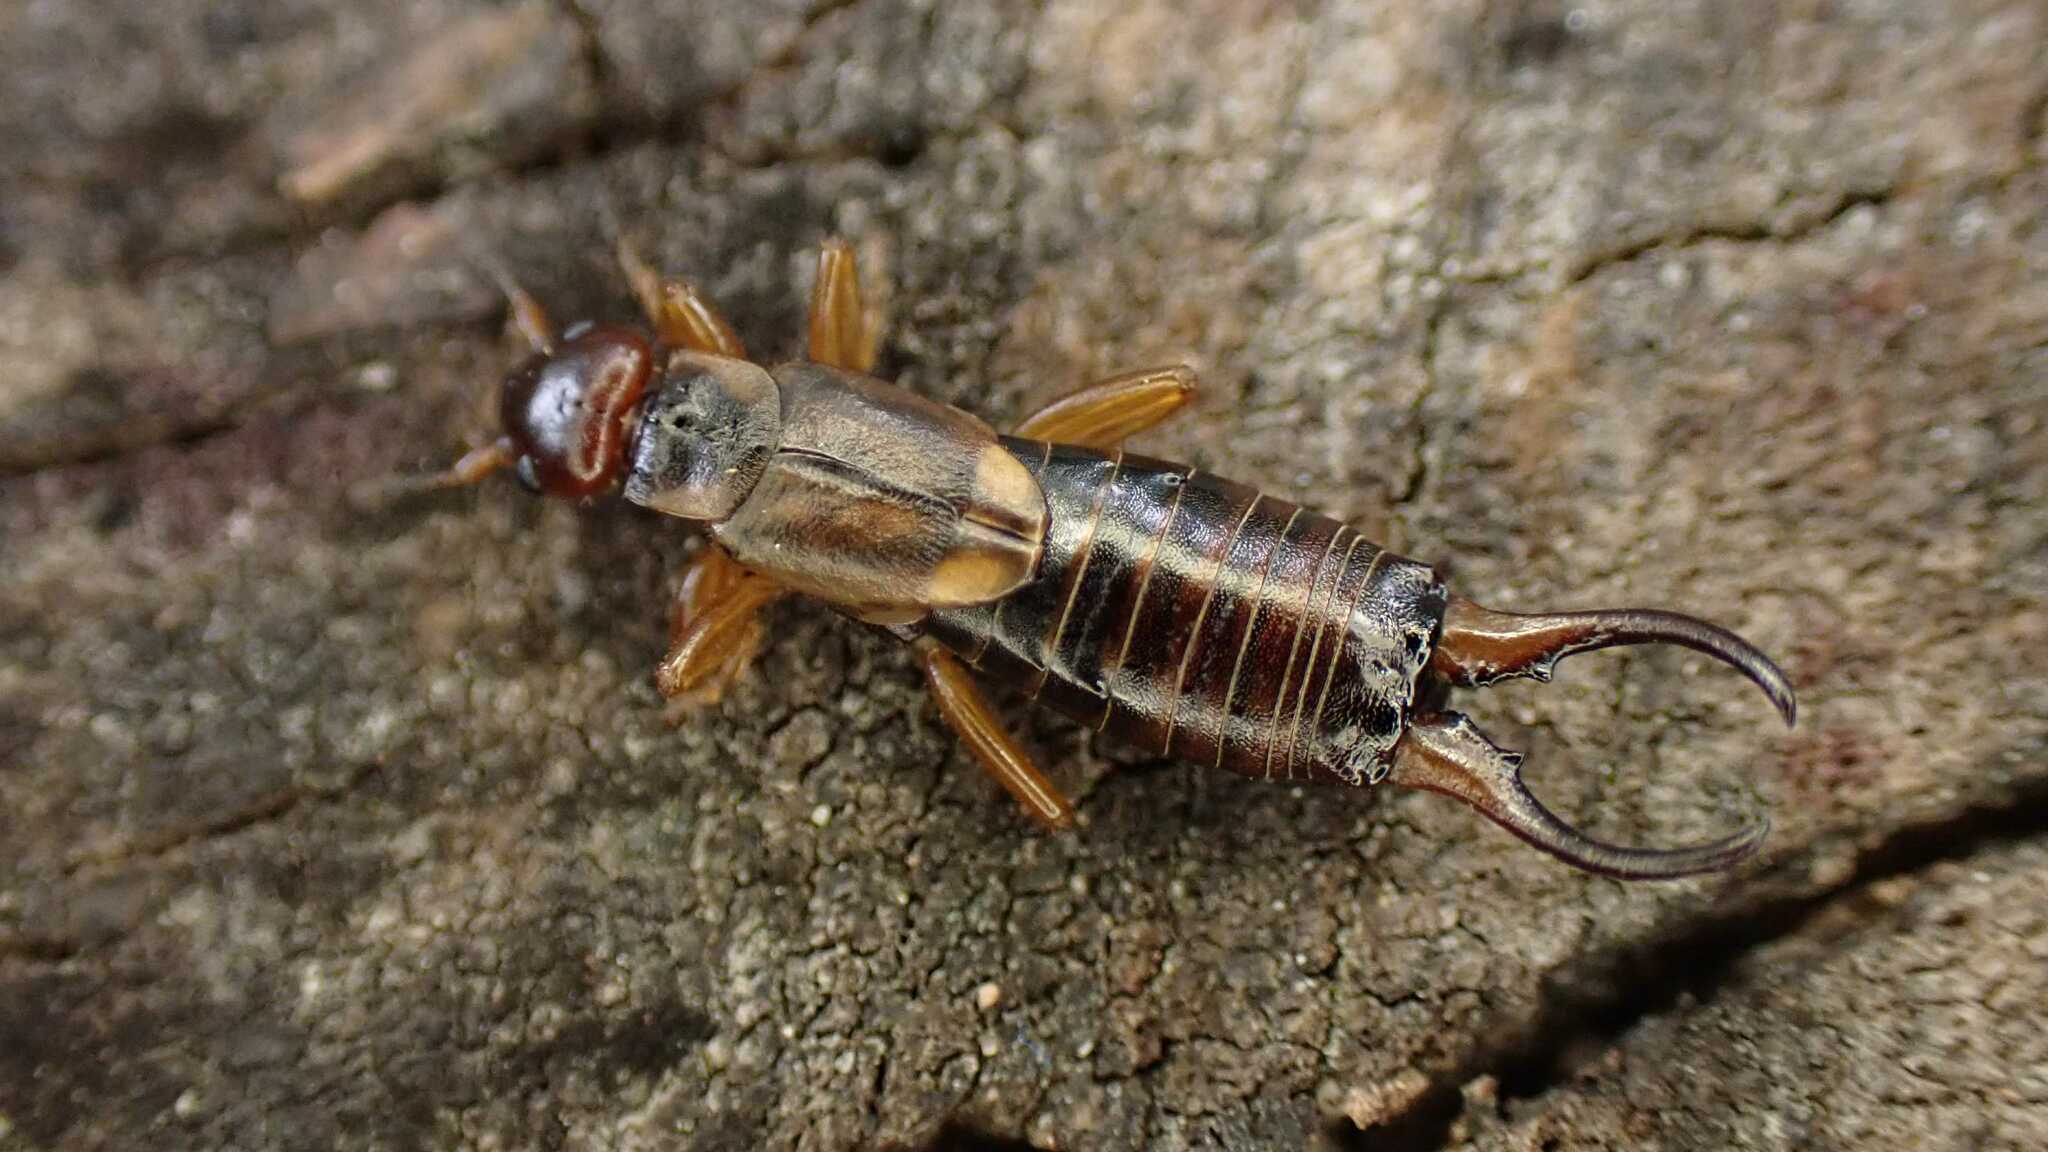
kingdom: Animalia
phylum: Arthropoda
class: Insecta
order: Dermaptera
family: Forficulidae
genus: Forficula
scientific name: Forficula
